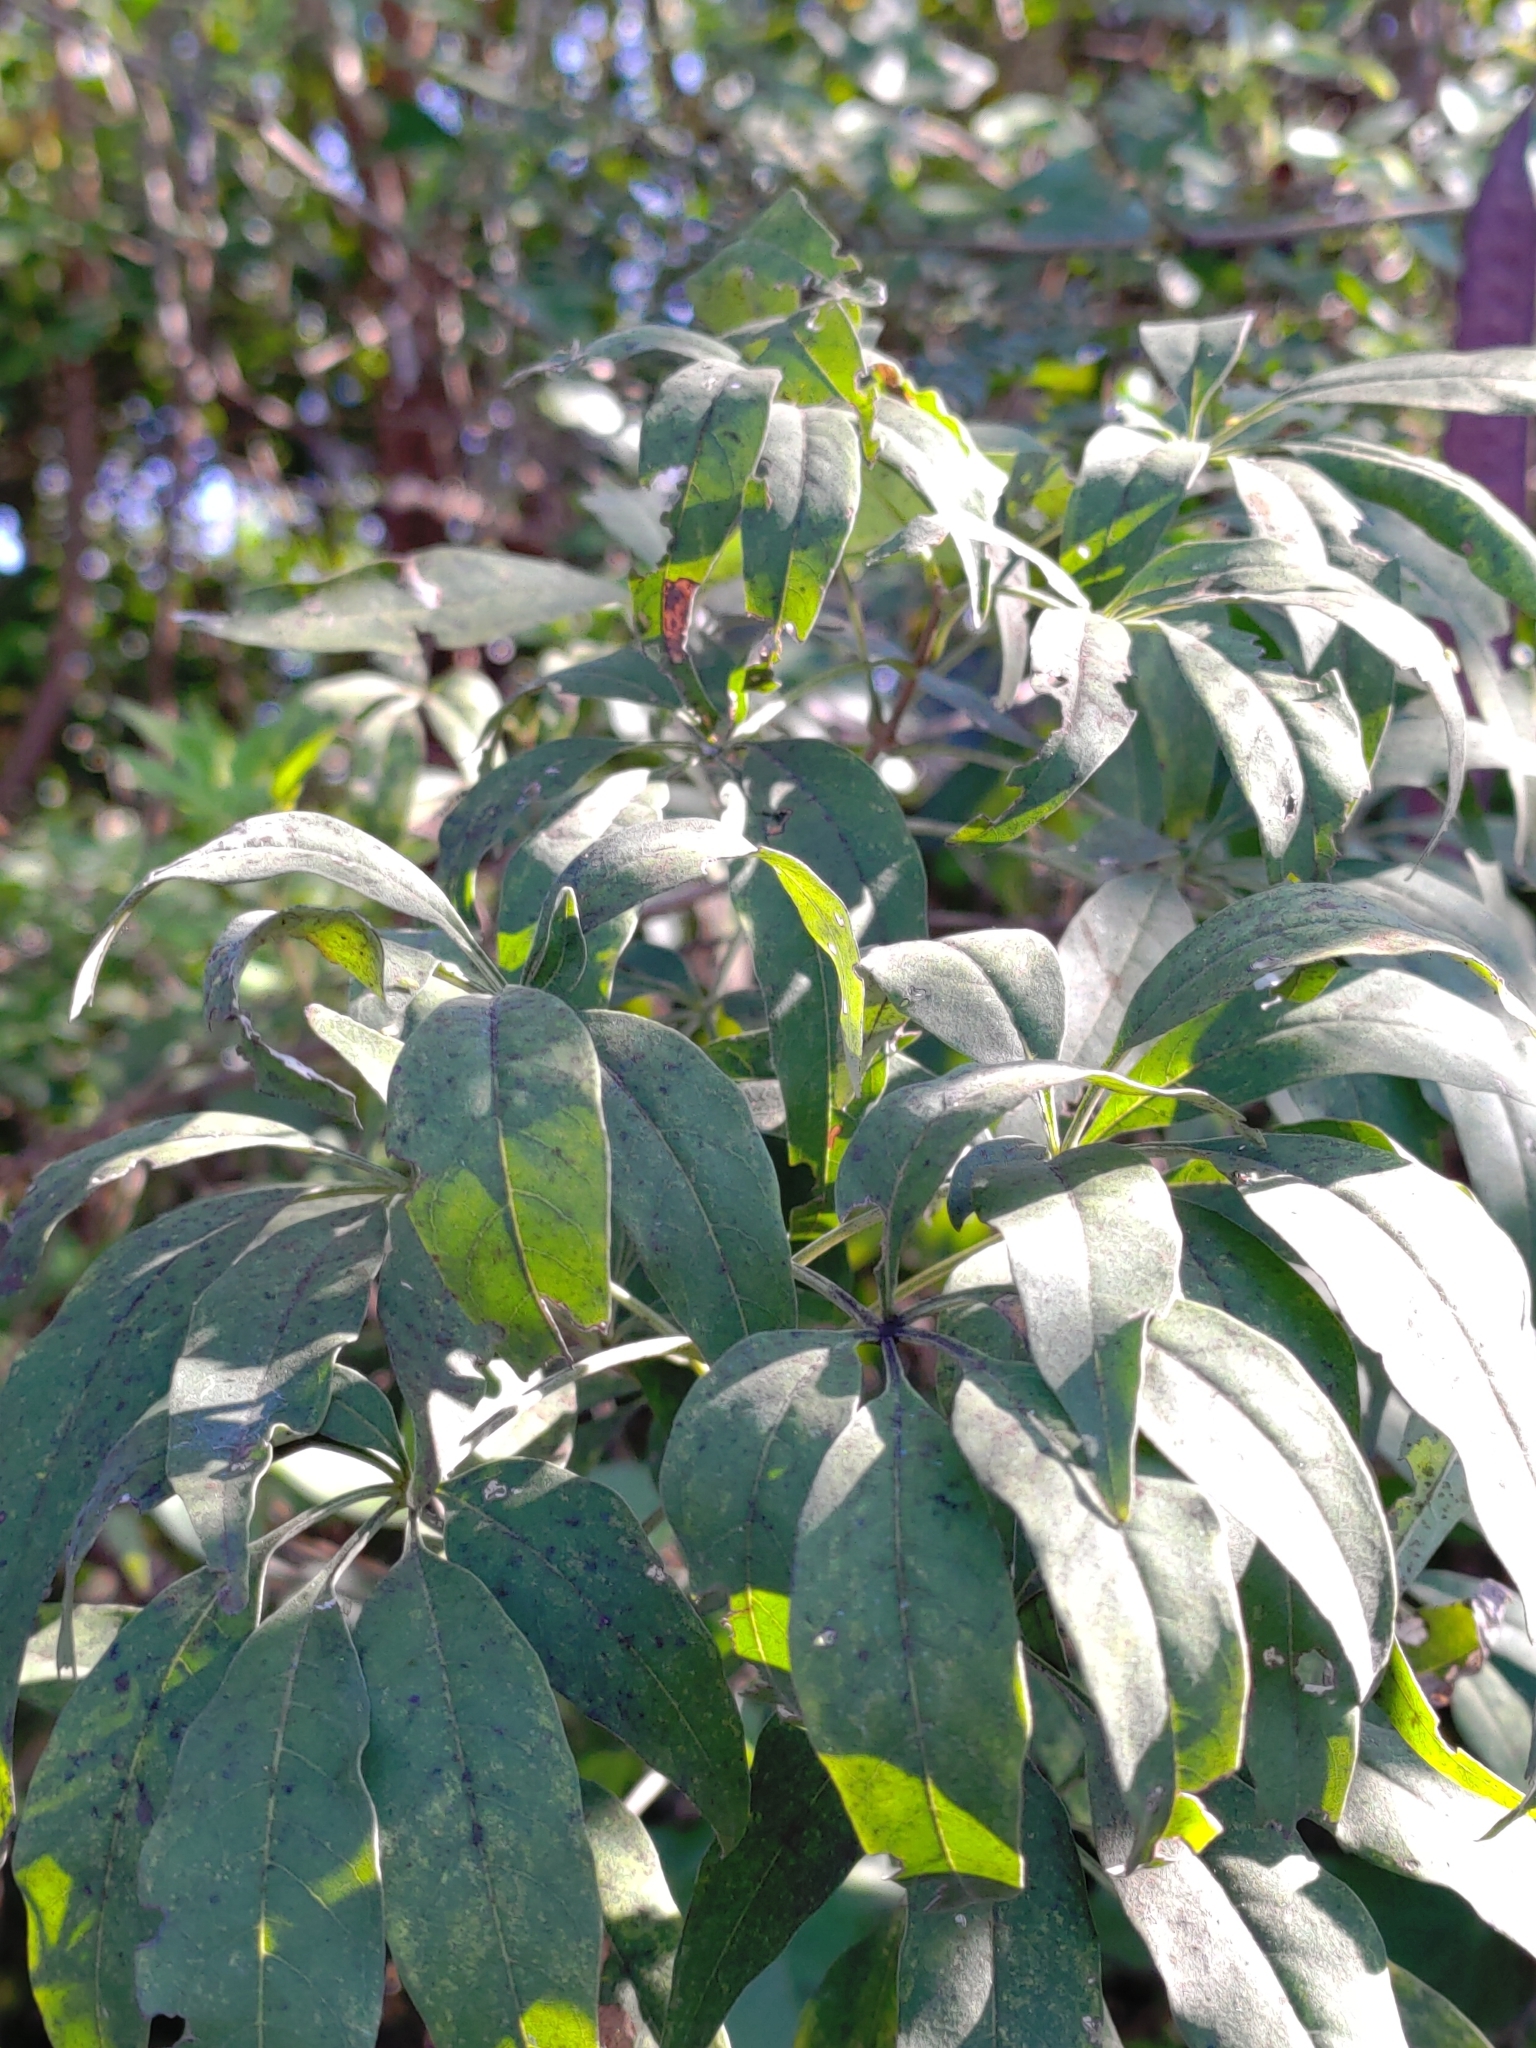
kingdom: Plantae
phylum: Tracheophyta
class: Magnoliopsida
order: Apiales
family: Araliaceae
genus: Heptapleurum
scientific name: Heptapleurum ellipticum
